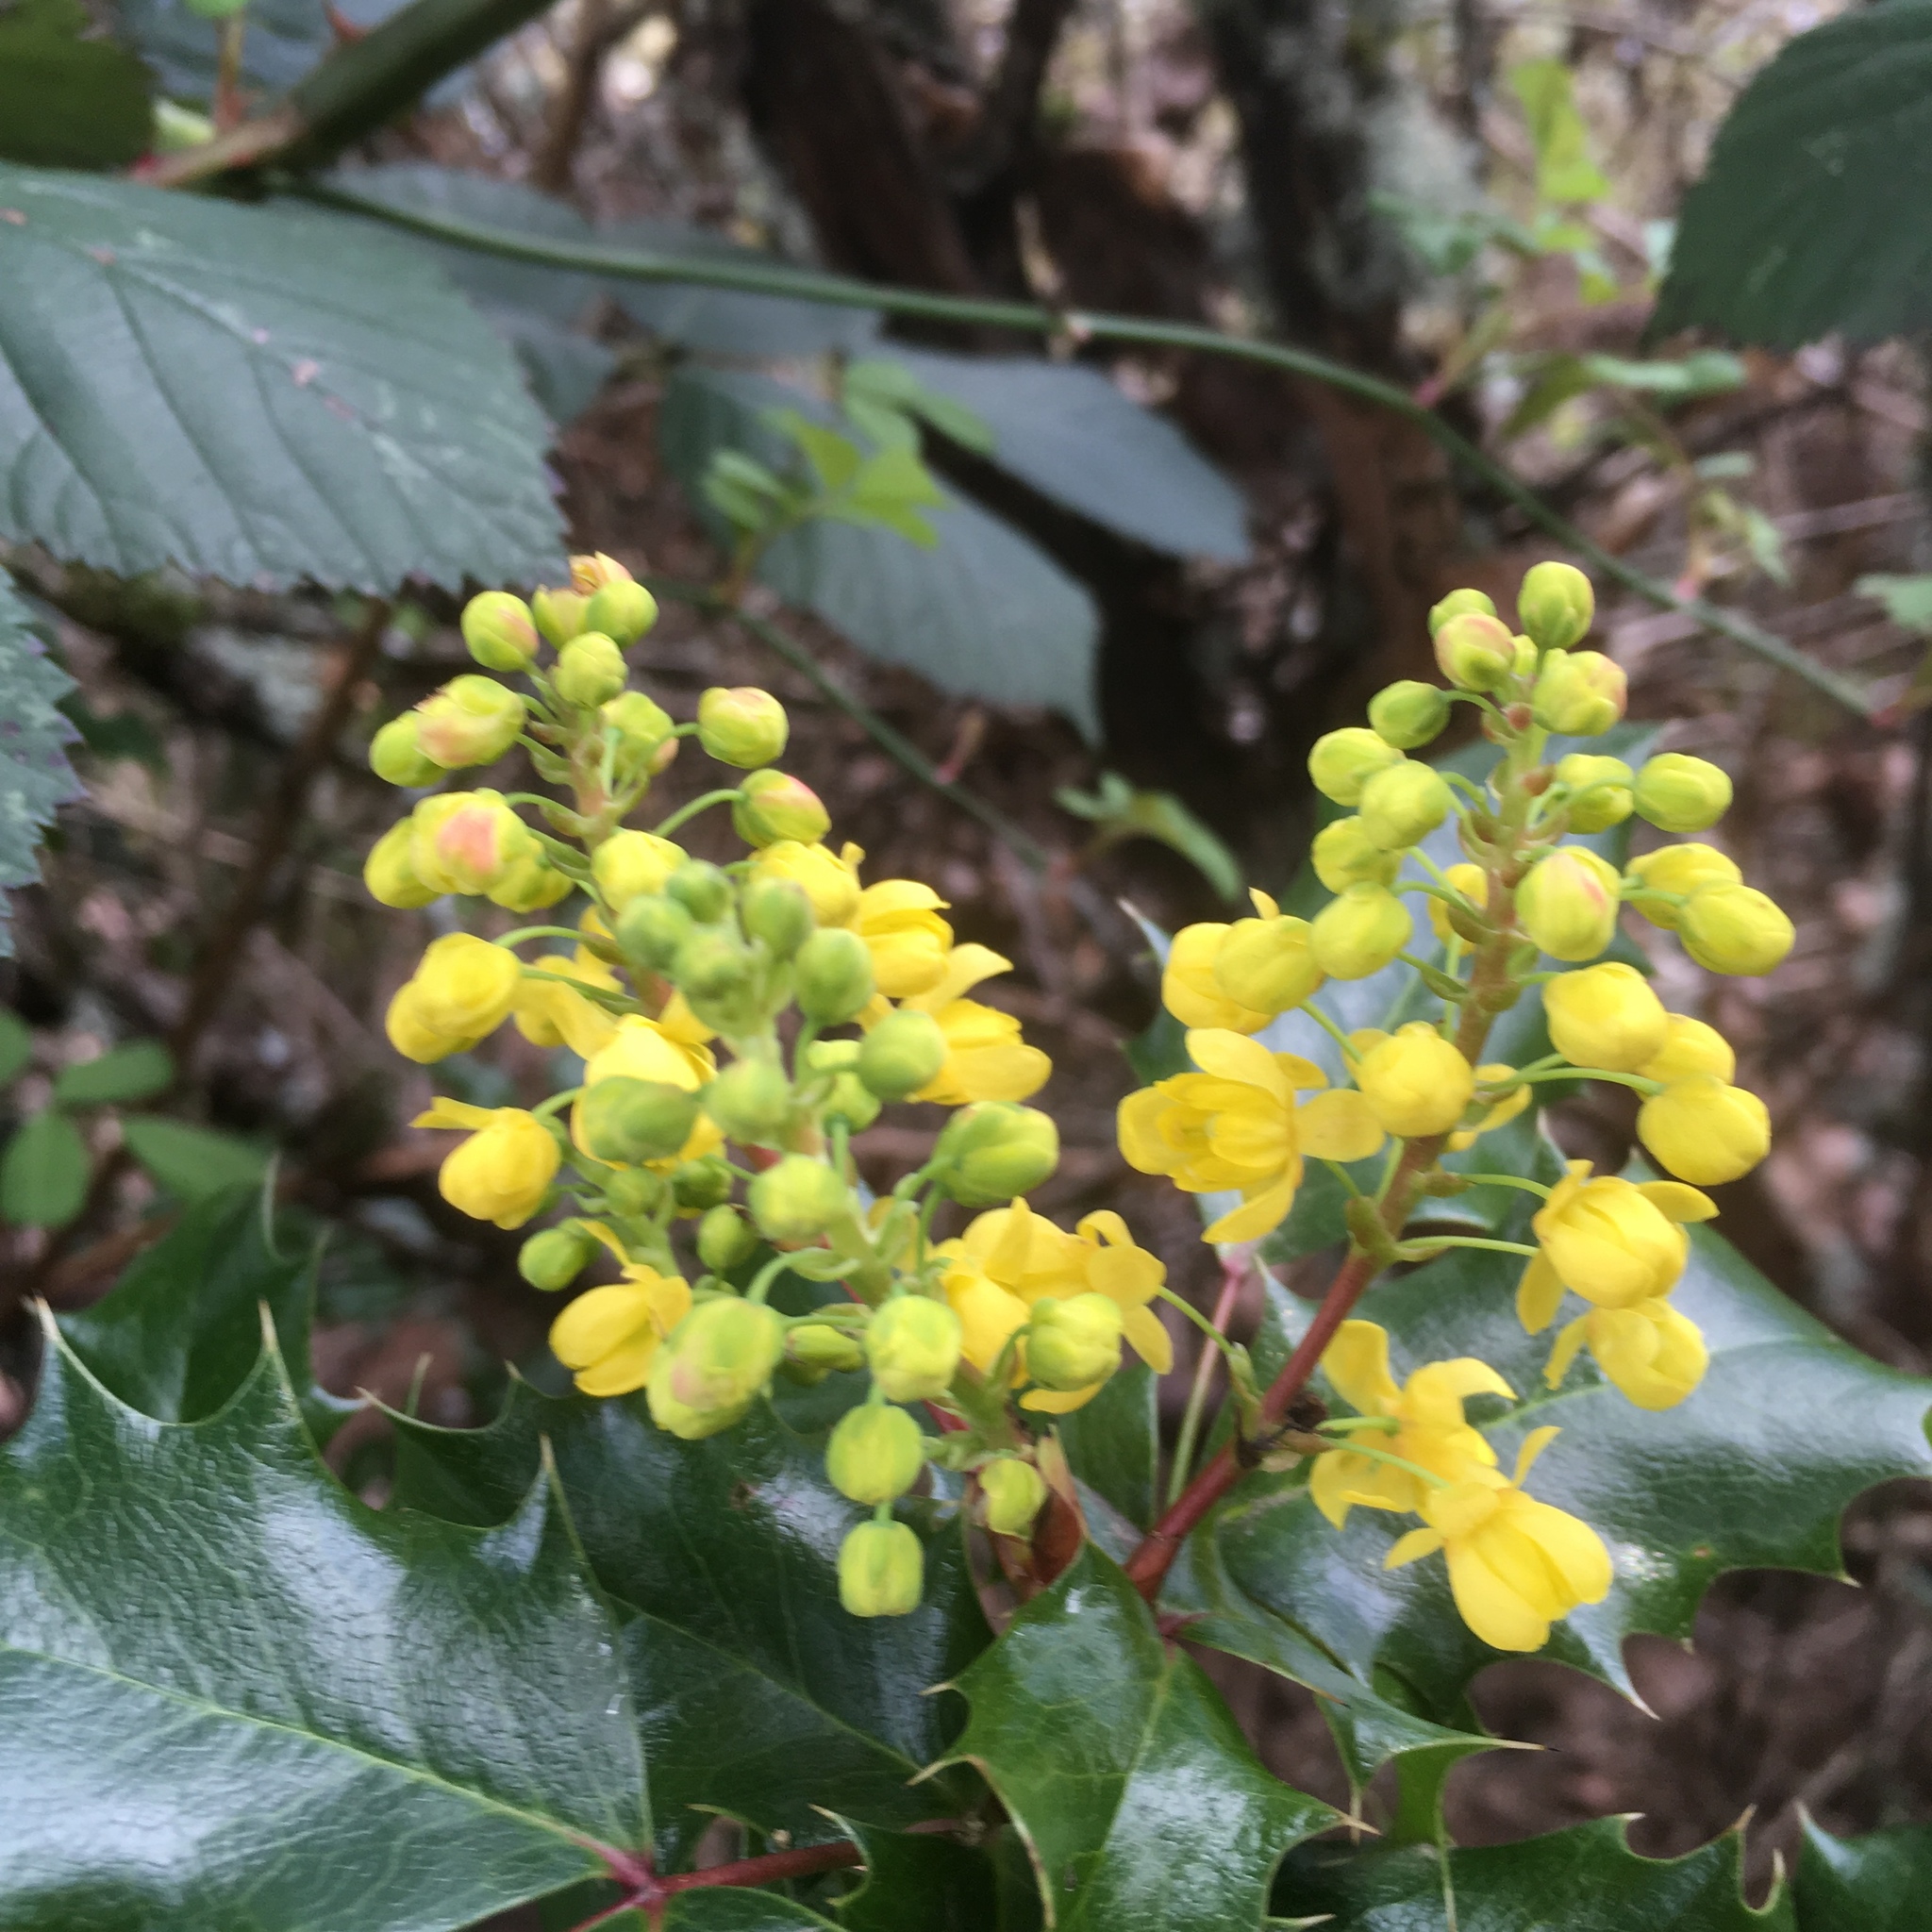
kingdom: Plantae
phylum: Tracheophyta
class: Magnoliopsida
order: Ranunculales
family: Berberidaceae
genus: Mahonia
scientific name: Mahonia aquifolium
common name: Oregon-grape
